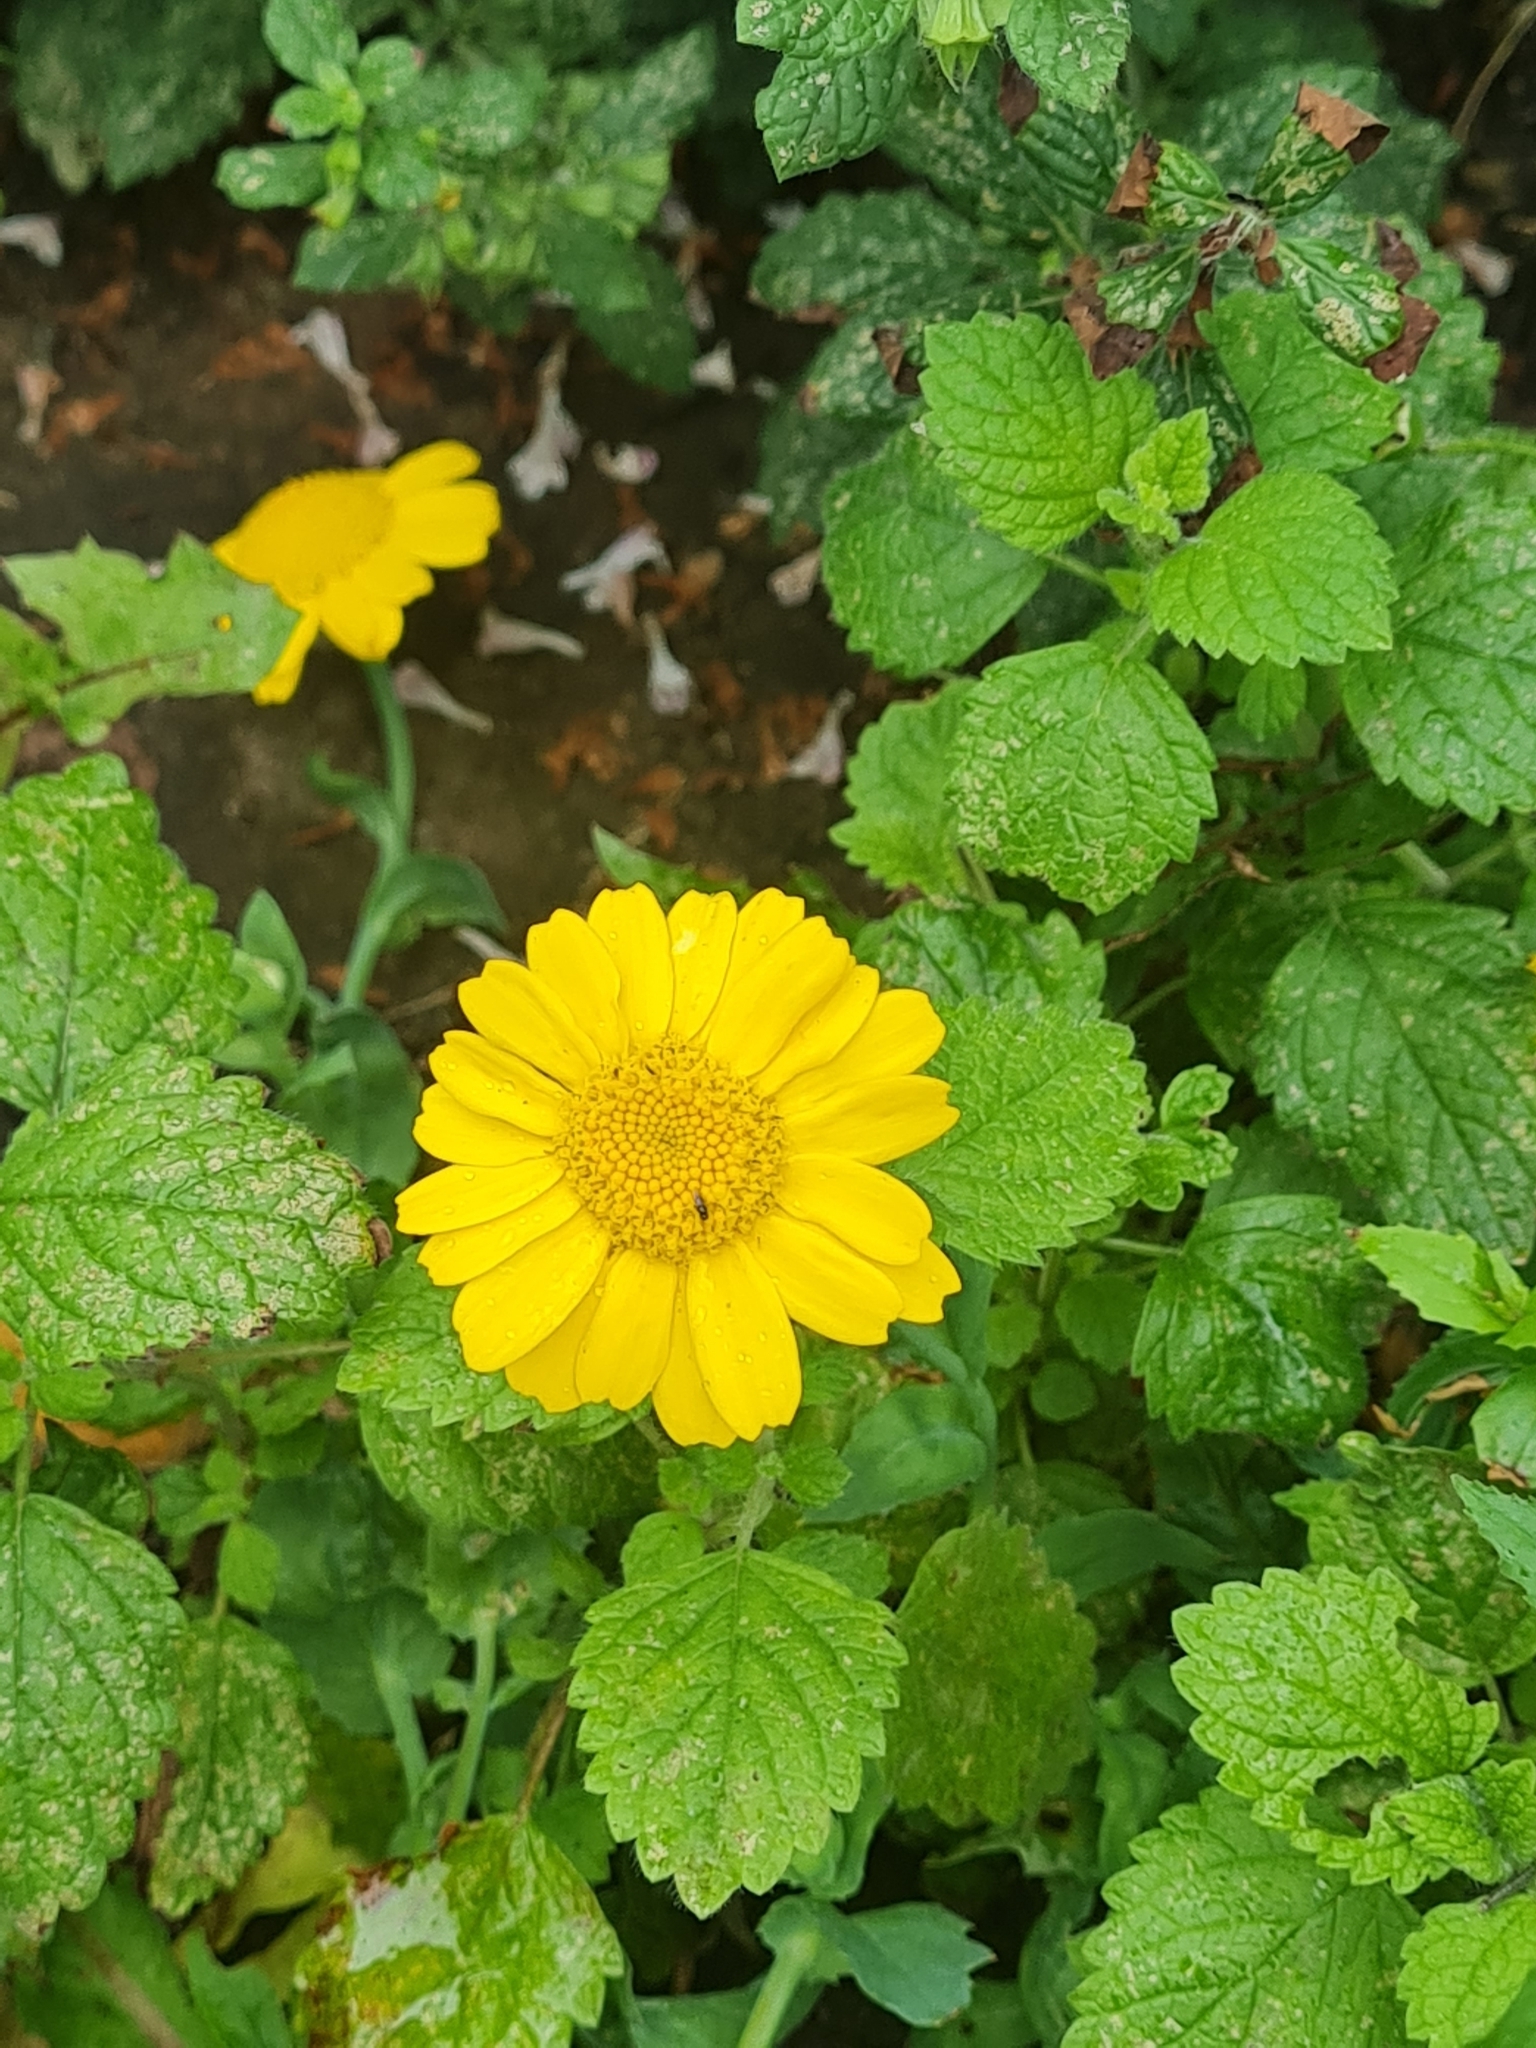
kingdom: Plantae
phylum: Tracheophyta
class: Magnoliopsida
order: Asterales
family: Asteraceae
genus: Glebionis
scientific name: Glebionis segetum
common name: Corndaisy
